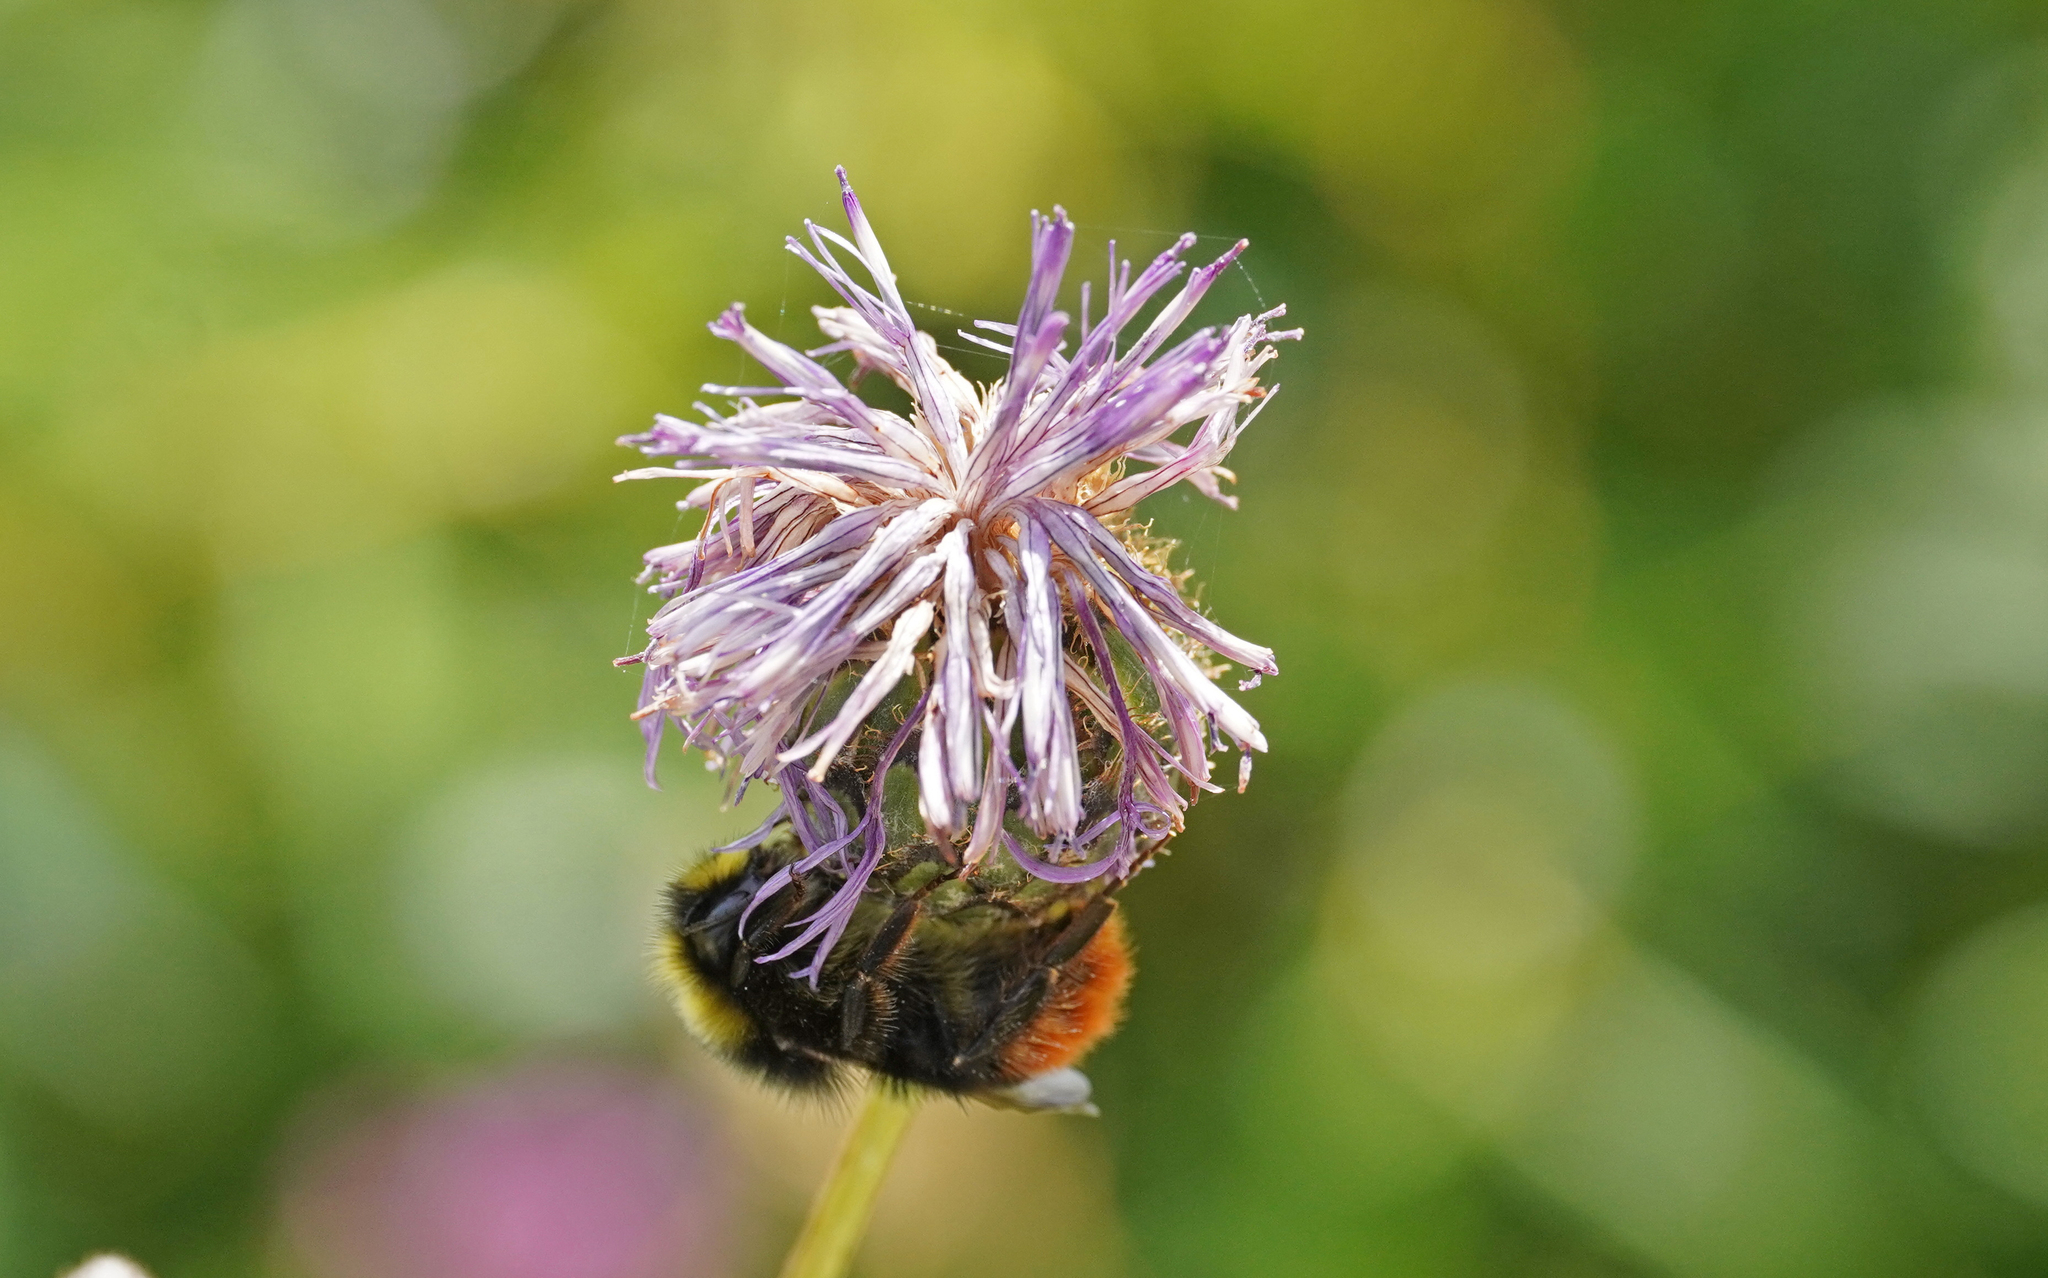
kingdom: Animalia
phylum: Arthropoda
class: Insecta
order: Hymenoptera
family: Apidae
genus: Bombus
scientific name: Bombus lapidarius
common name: Large red-tailed humble-bee
